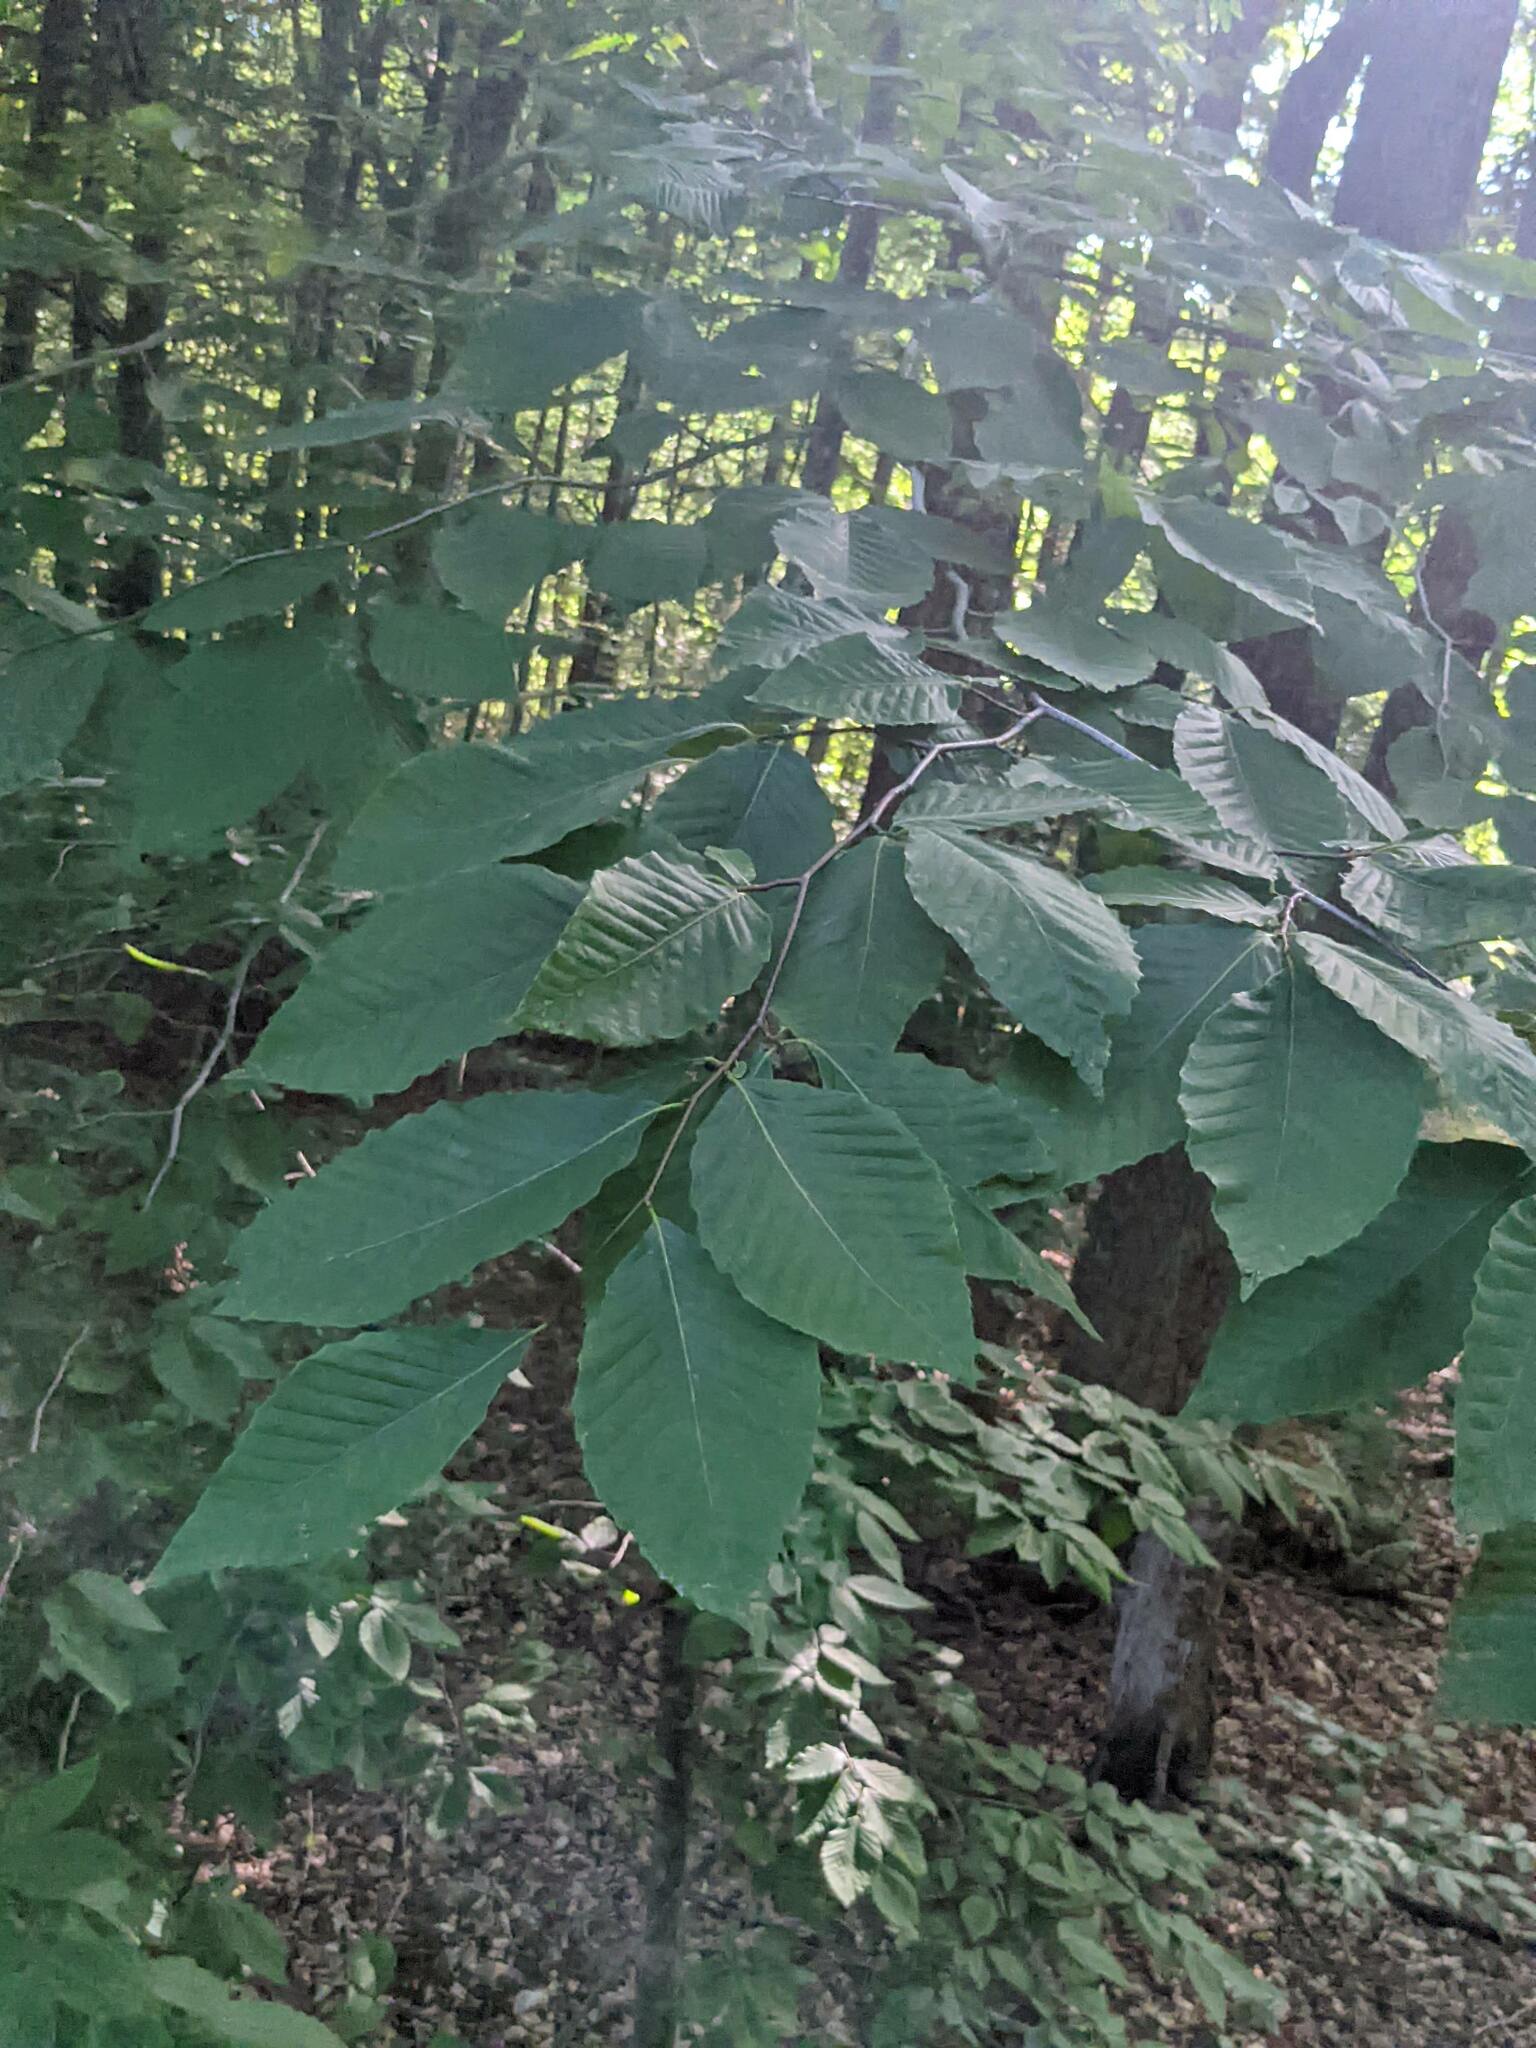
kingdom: Plantae
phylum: Tracheophyta
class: Magnoliopsida
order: Fagales
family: Fagaceae
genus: Fagus
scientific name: Fagus grandifolia
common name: American beech
